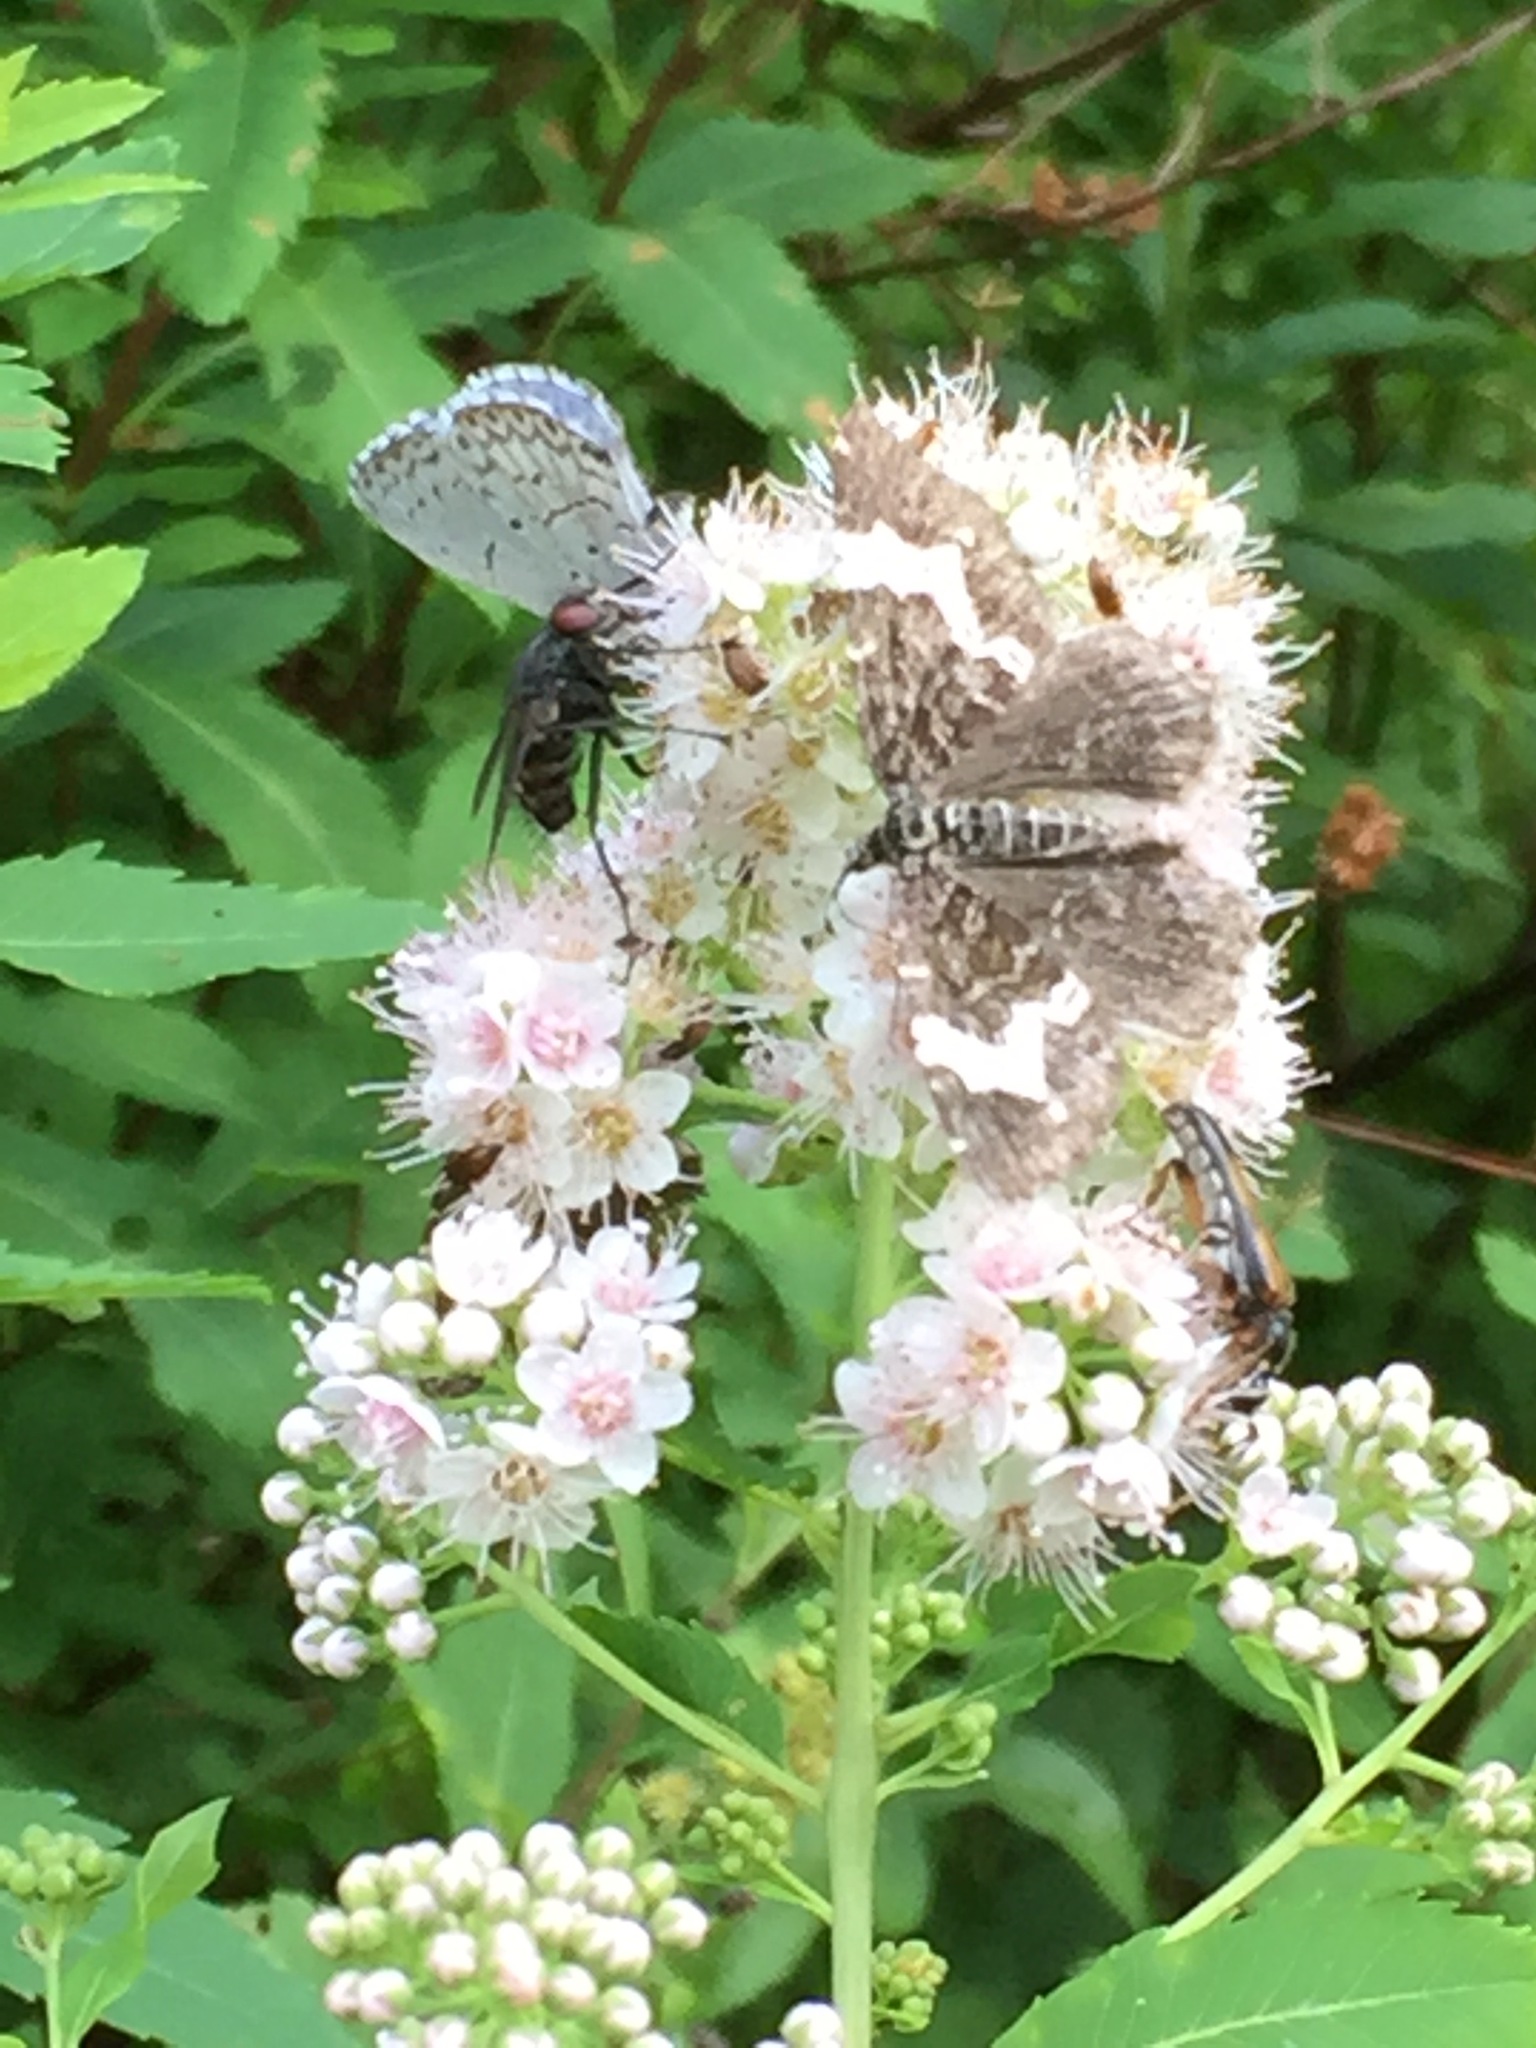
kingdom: Plantae
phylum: Tracheophyta
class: Magnoliopsida
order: Rosales
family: Rosaceae
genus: Spiraea
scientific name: Spiraea alba
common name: Pale bridewort
